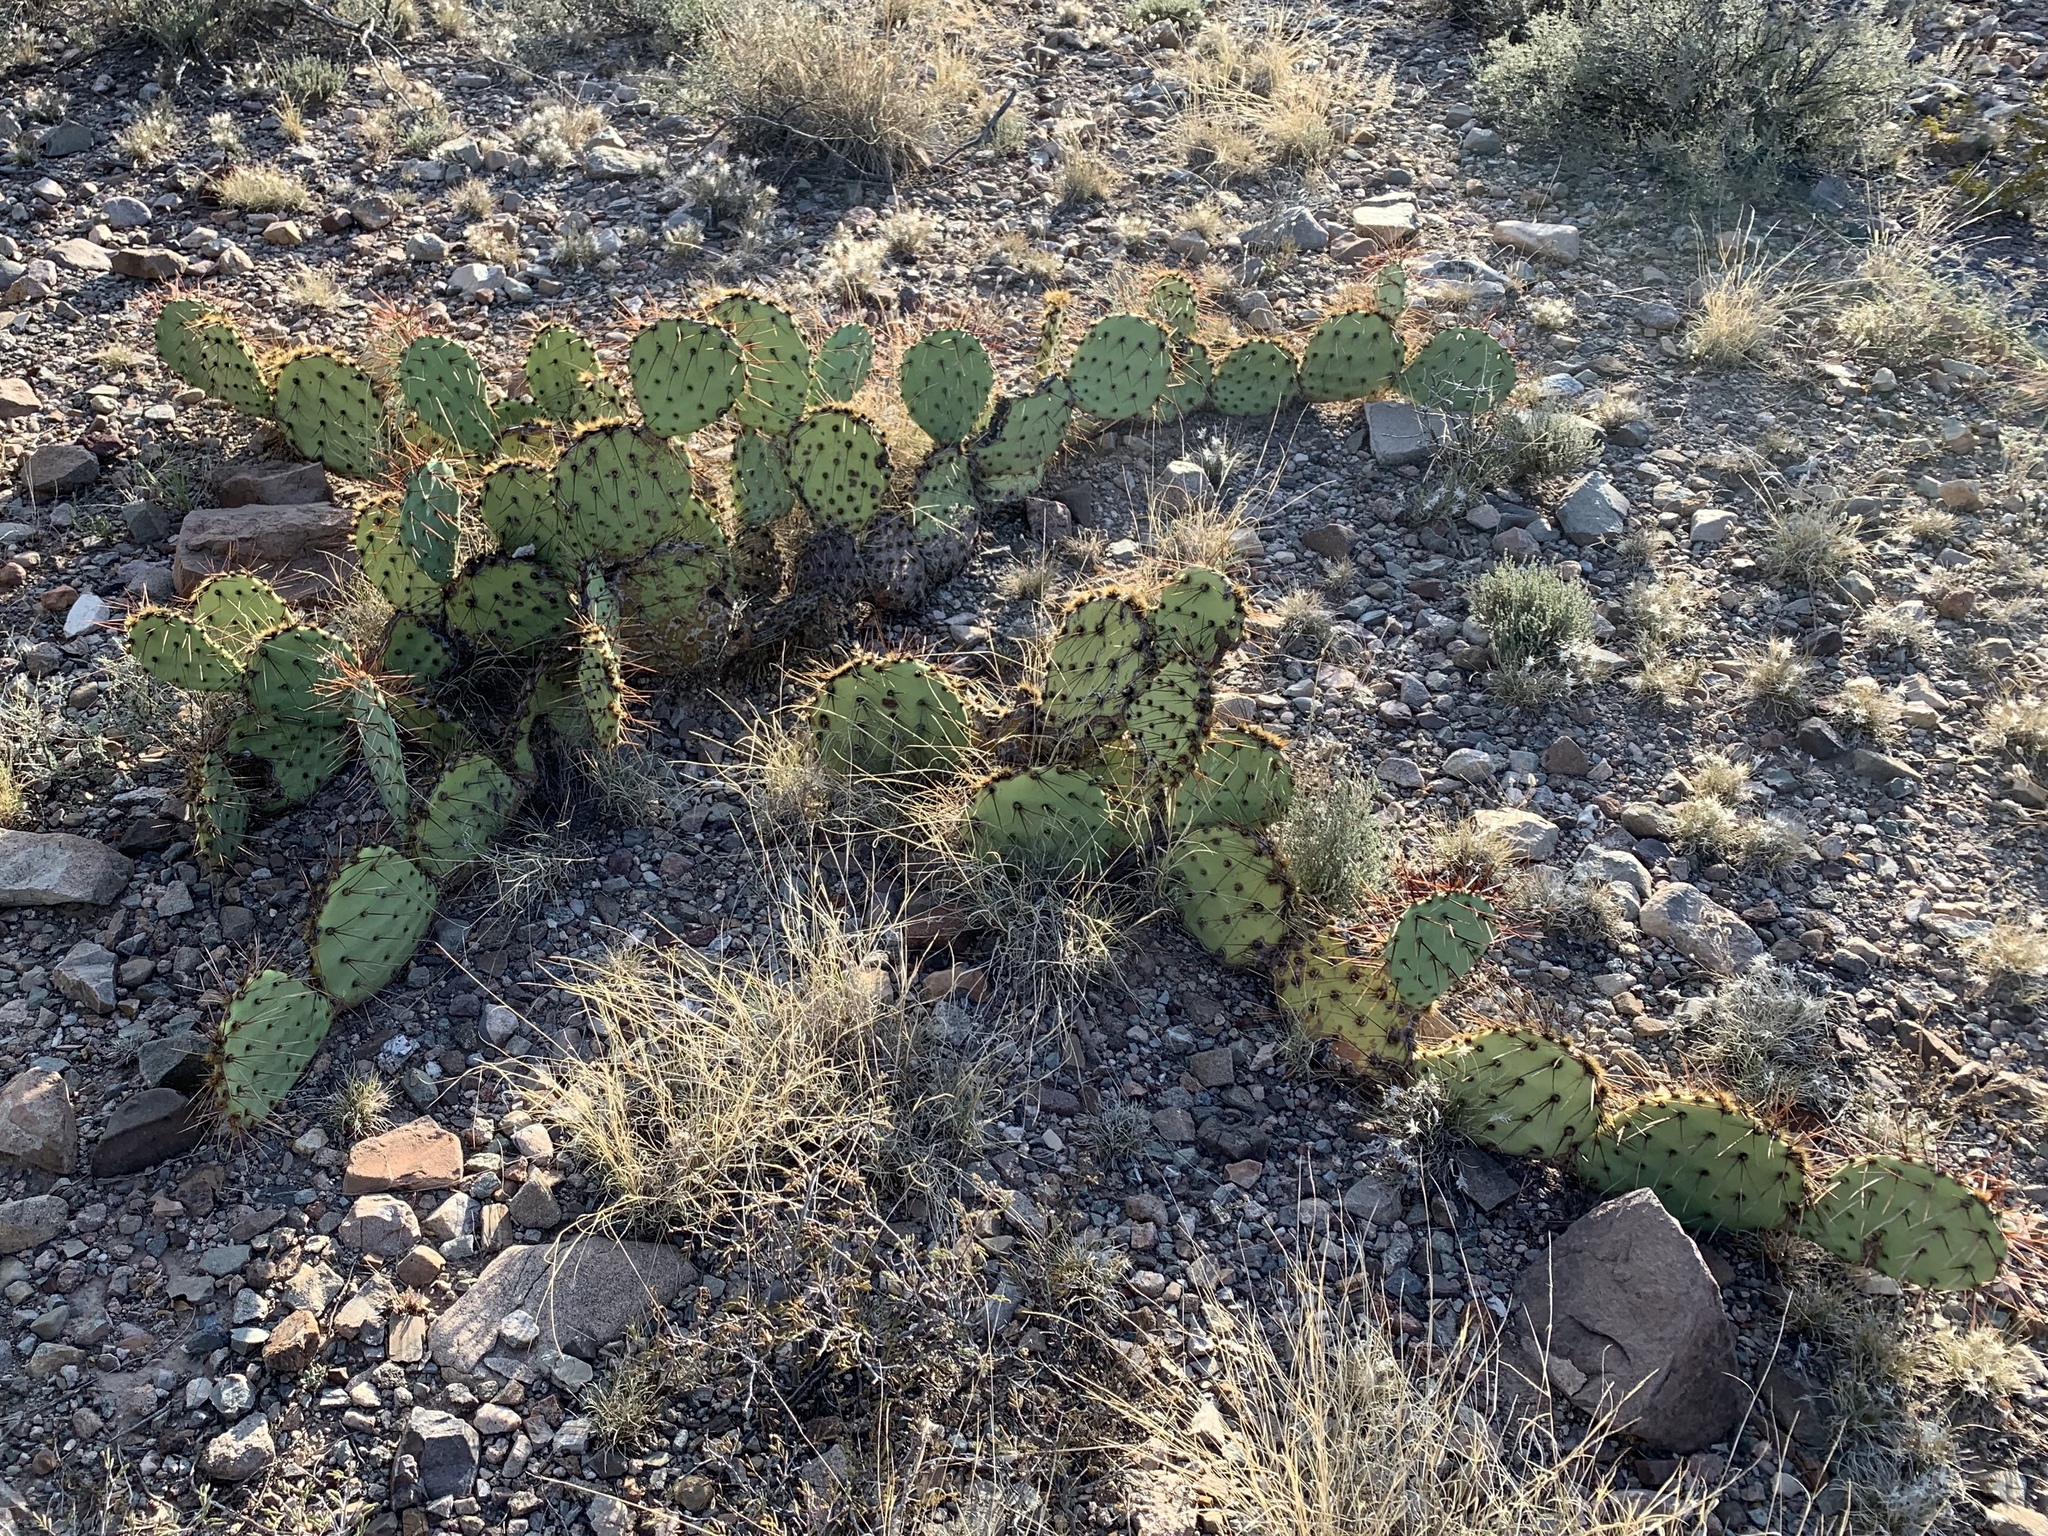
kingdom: Plantae
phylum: Tracheophyta
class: Magnoliopsida
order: Caryophyllales
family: Cactaceae
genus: Opuntia
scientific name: Opuntia phaeacantha
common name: New mexico prickly-pear
